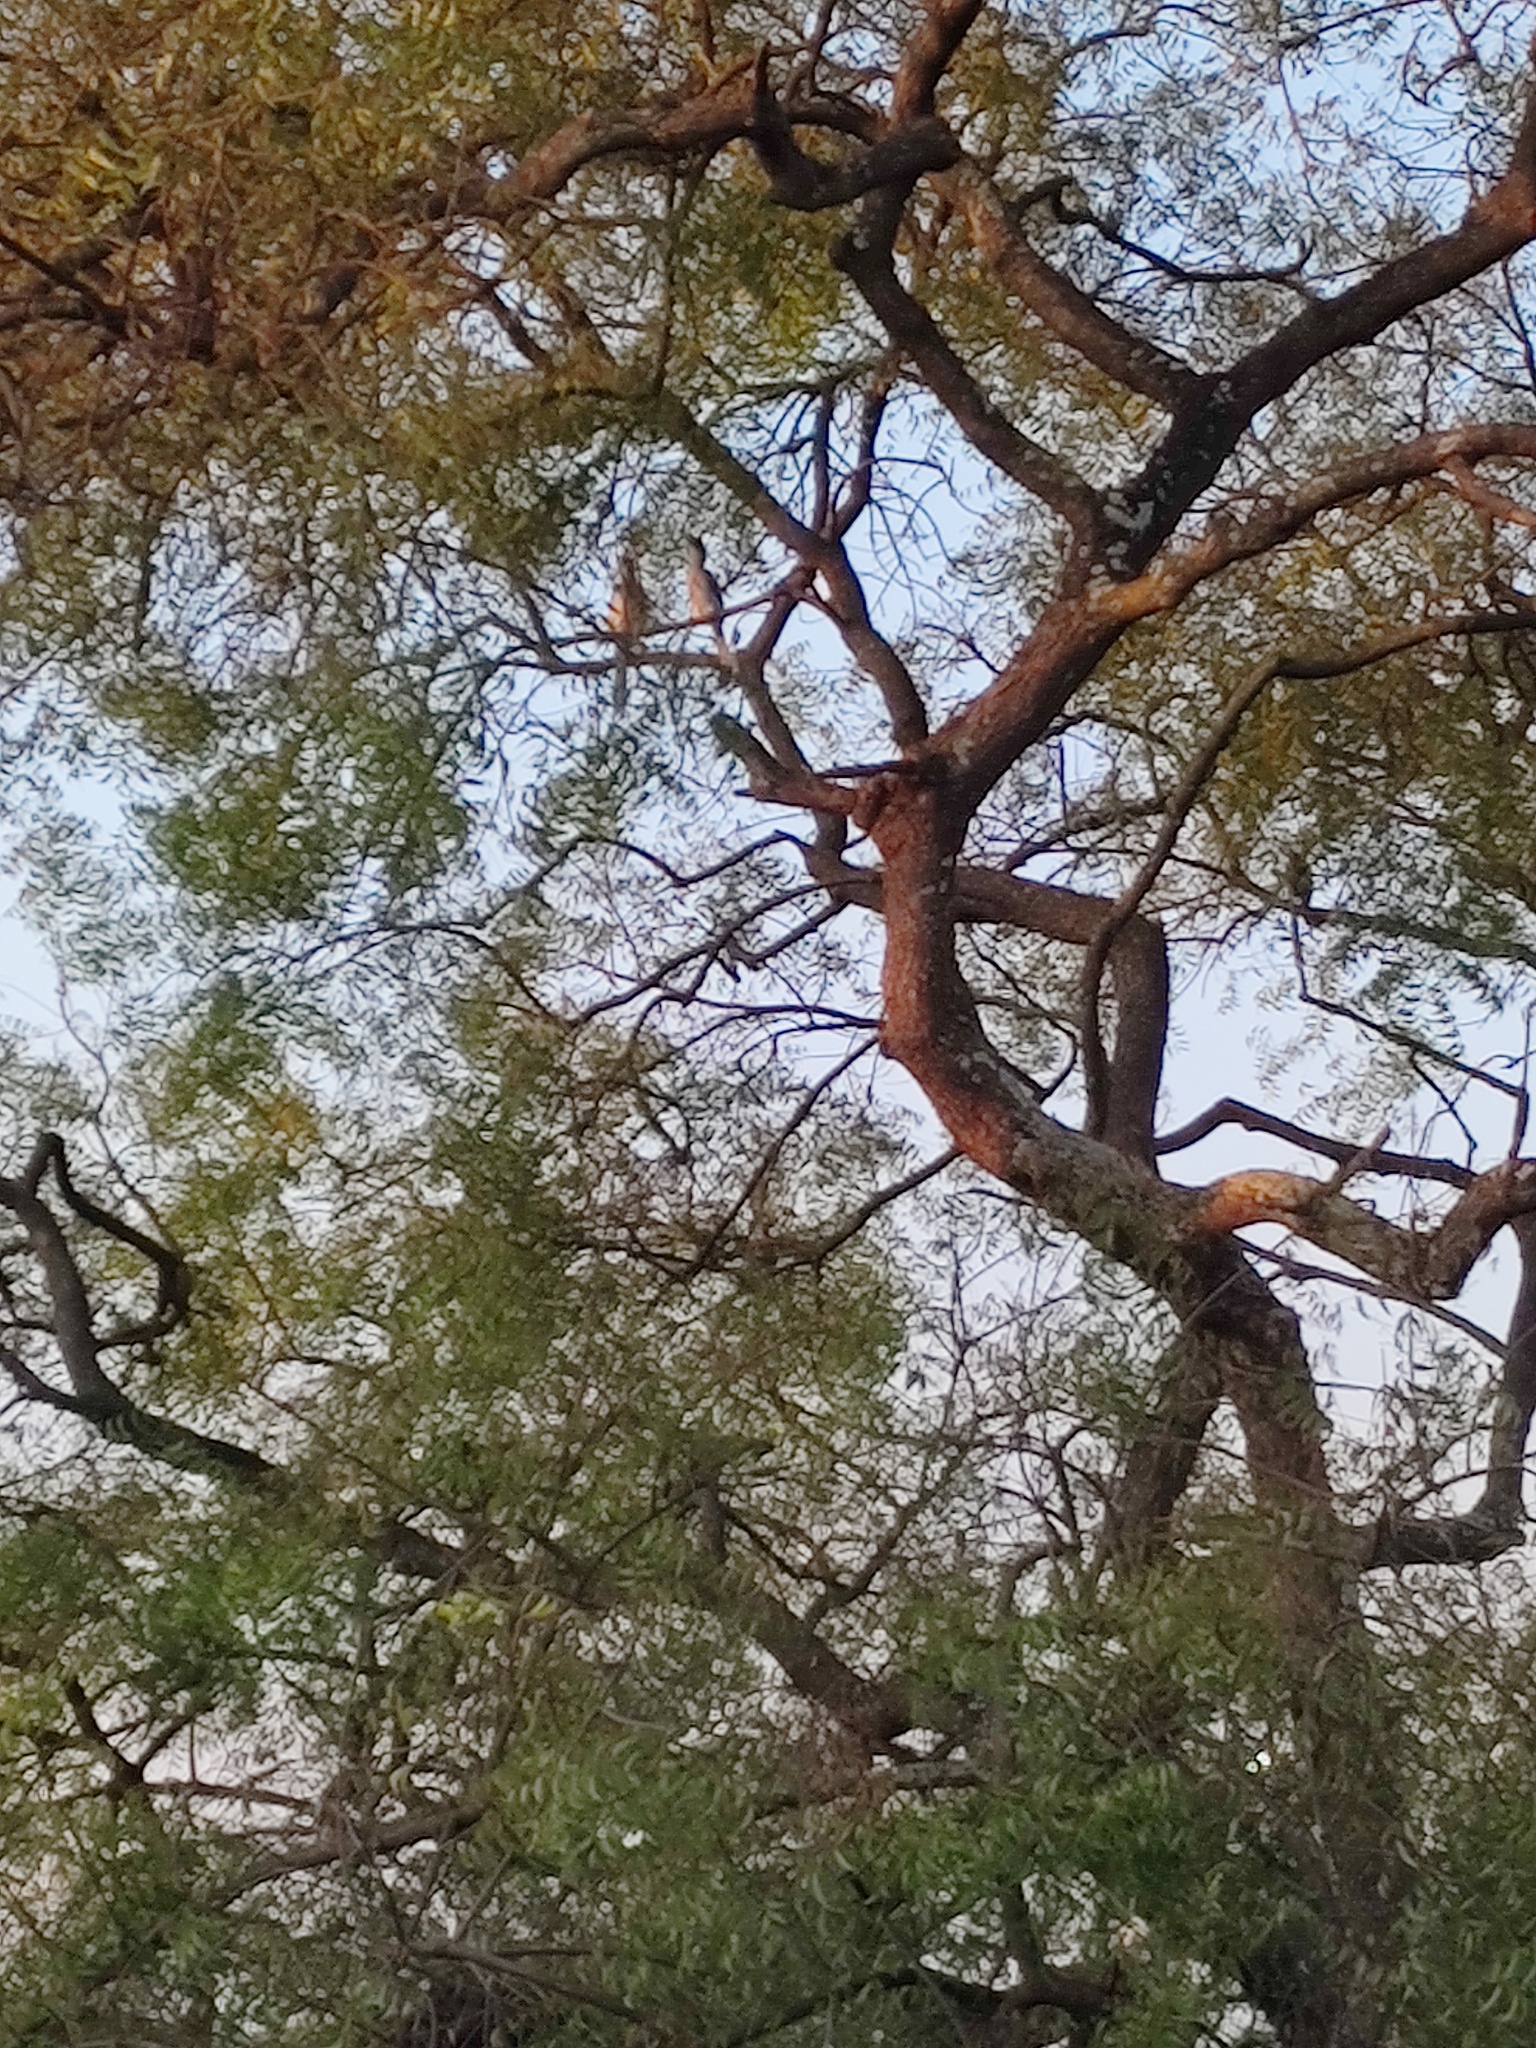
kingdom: Animalia
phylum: Chordata
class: Aves
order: Bucerotiformes
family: Bucerotidae
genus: Ocyceros
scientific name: Ocyceros birostris
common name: Indian grey hornbill
